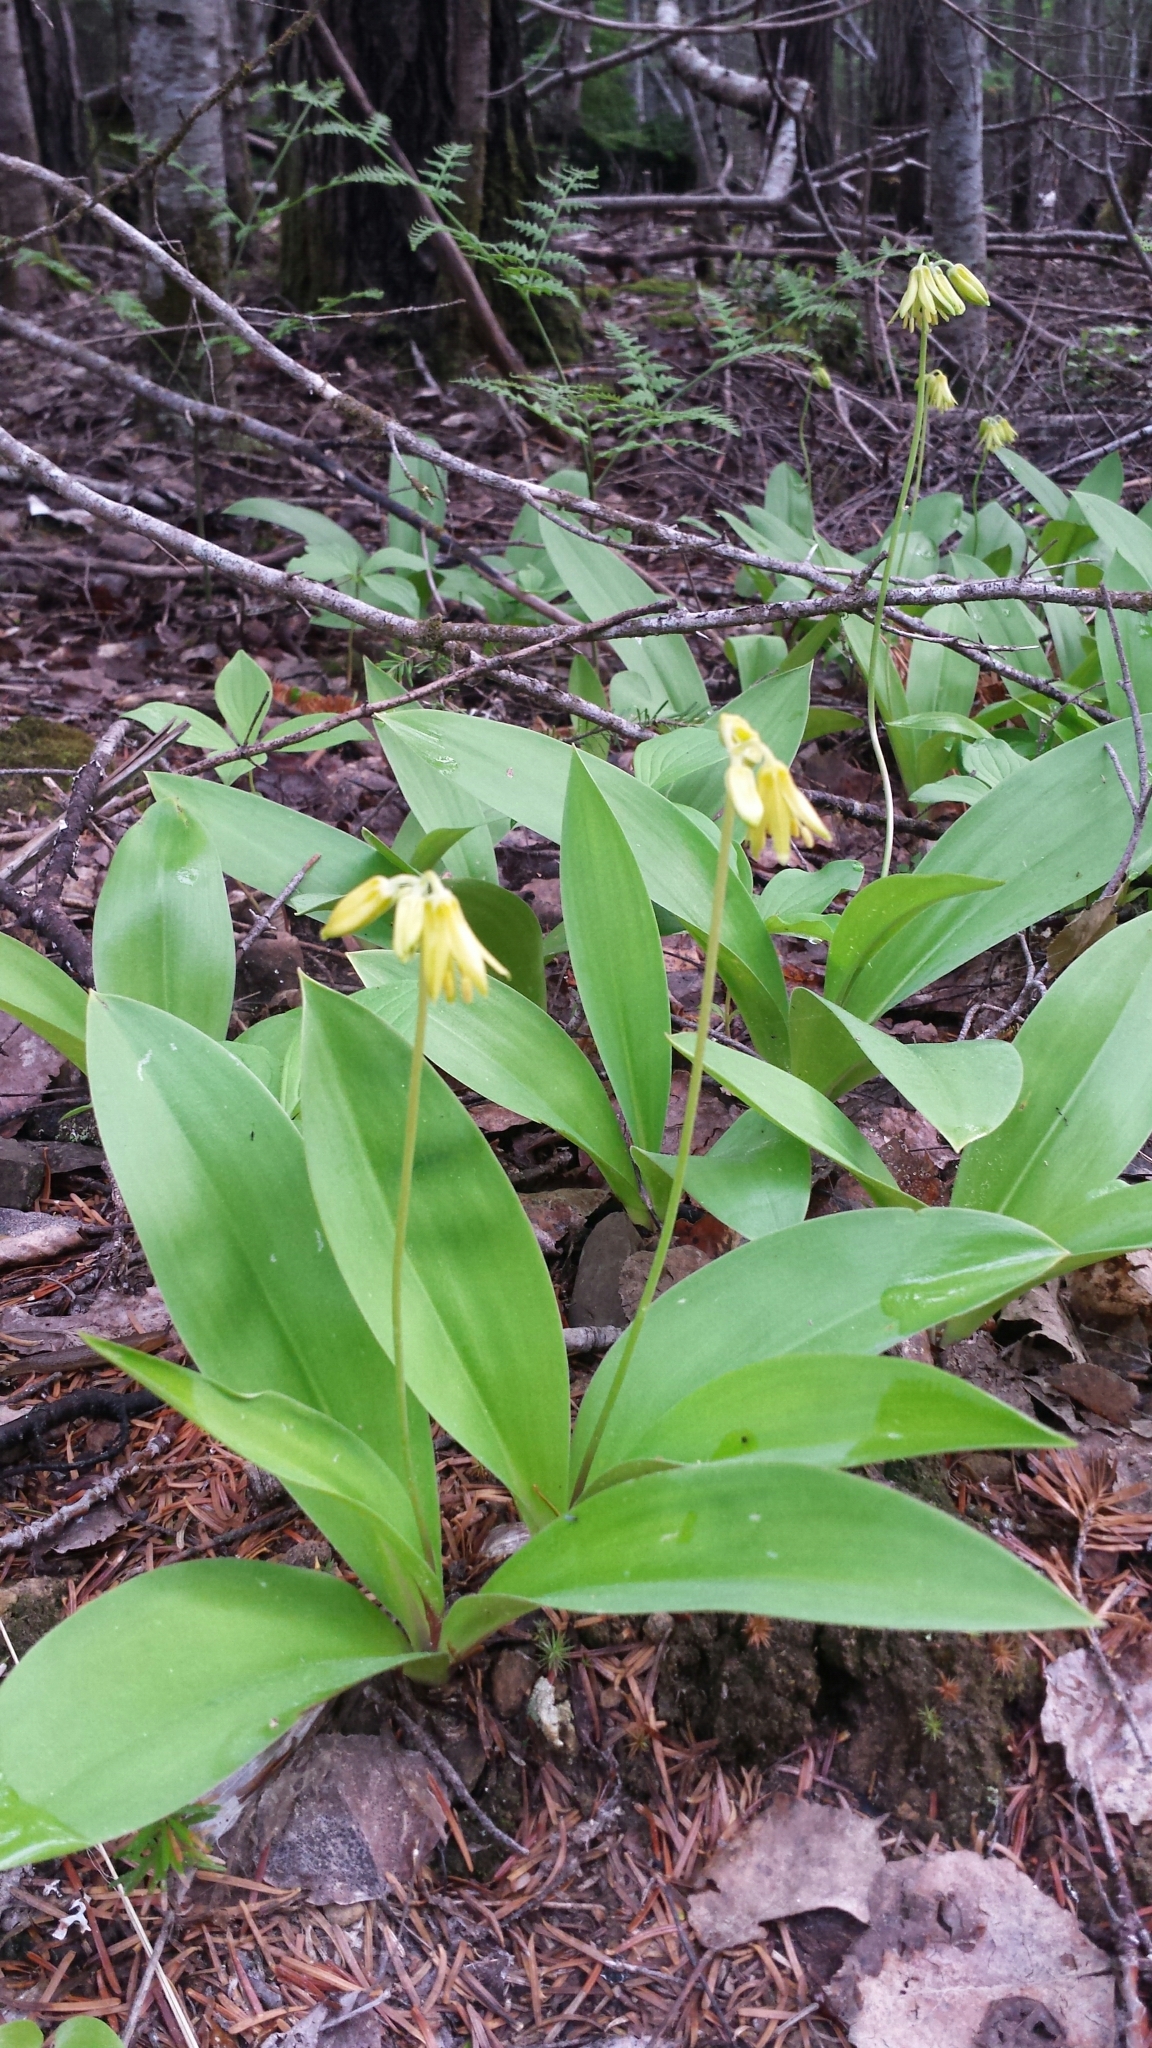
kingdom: Plantae
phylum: Tracheophyta
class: Liliopsida
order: Liliales
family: Liliaceae
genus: Clintonia
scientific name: Clintonia borealis
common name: Yellow clintonia
